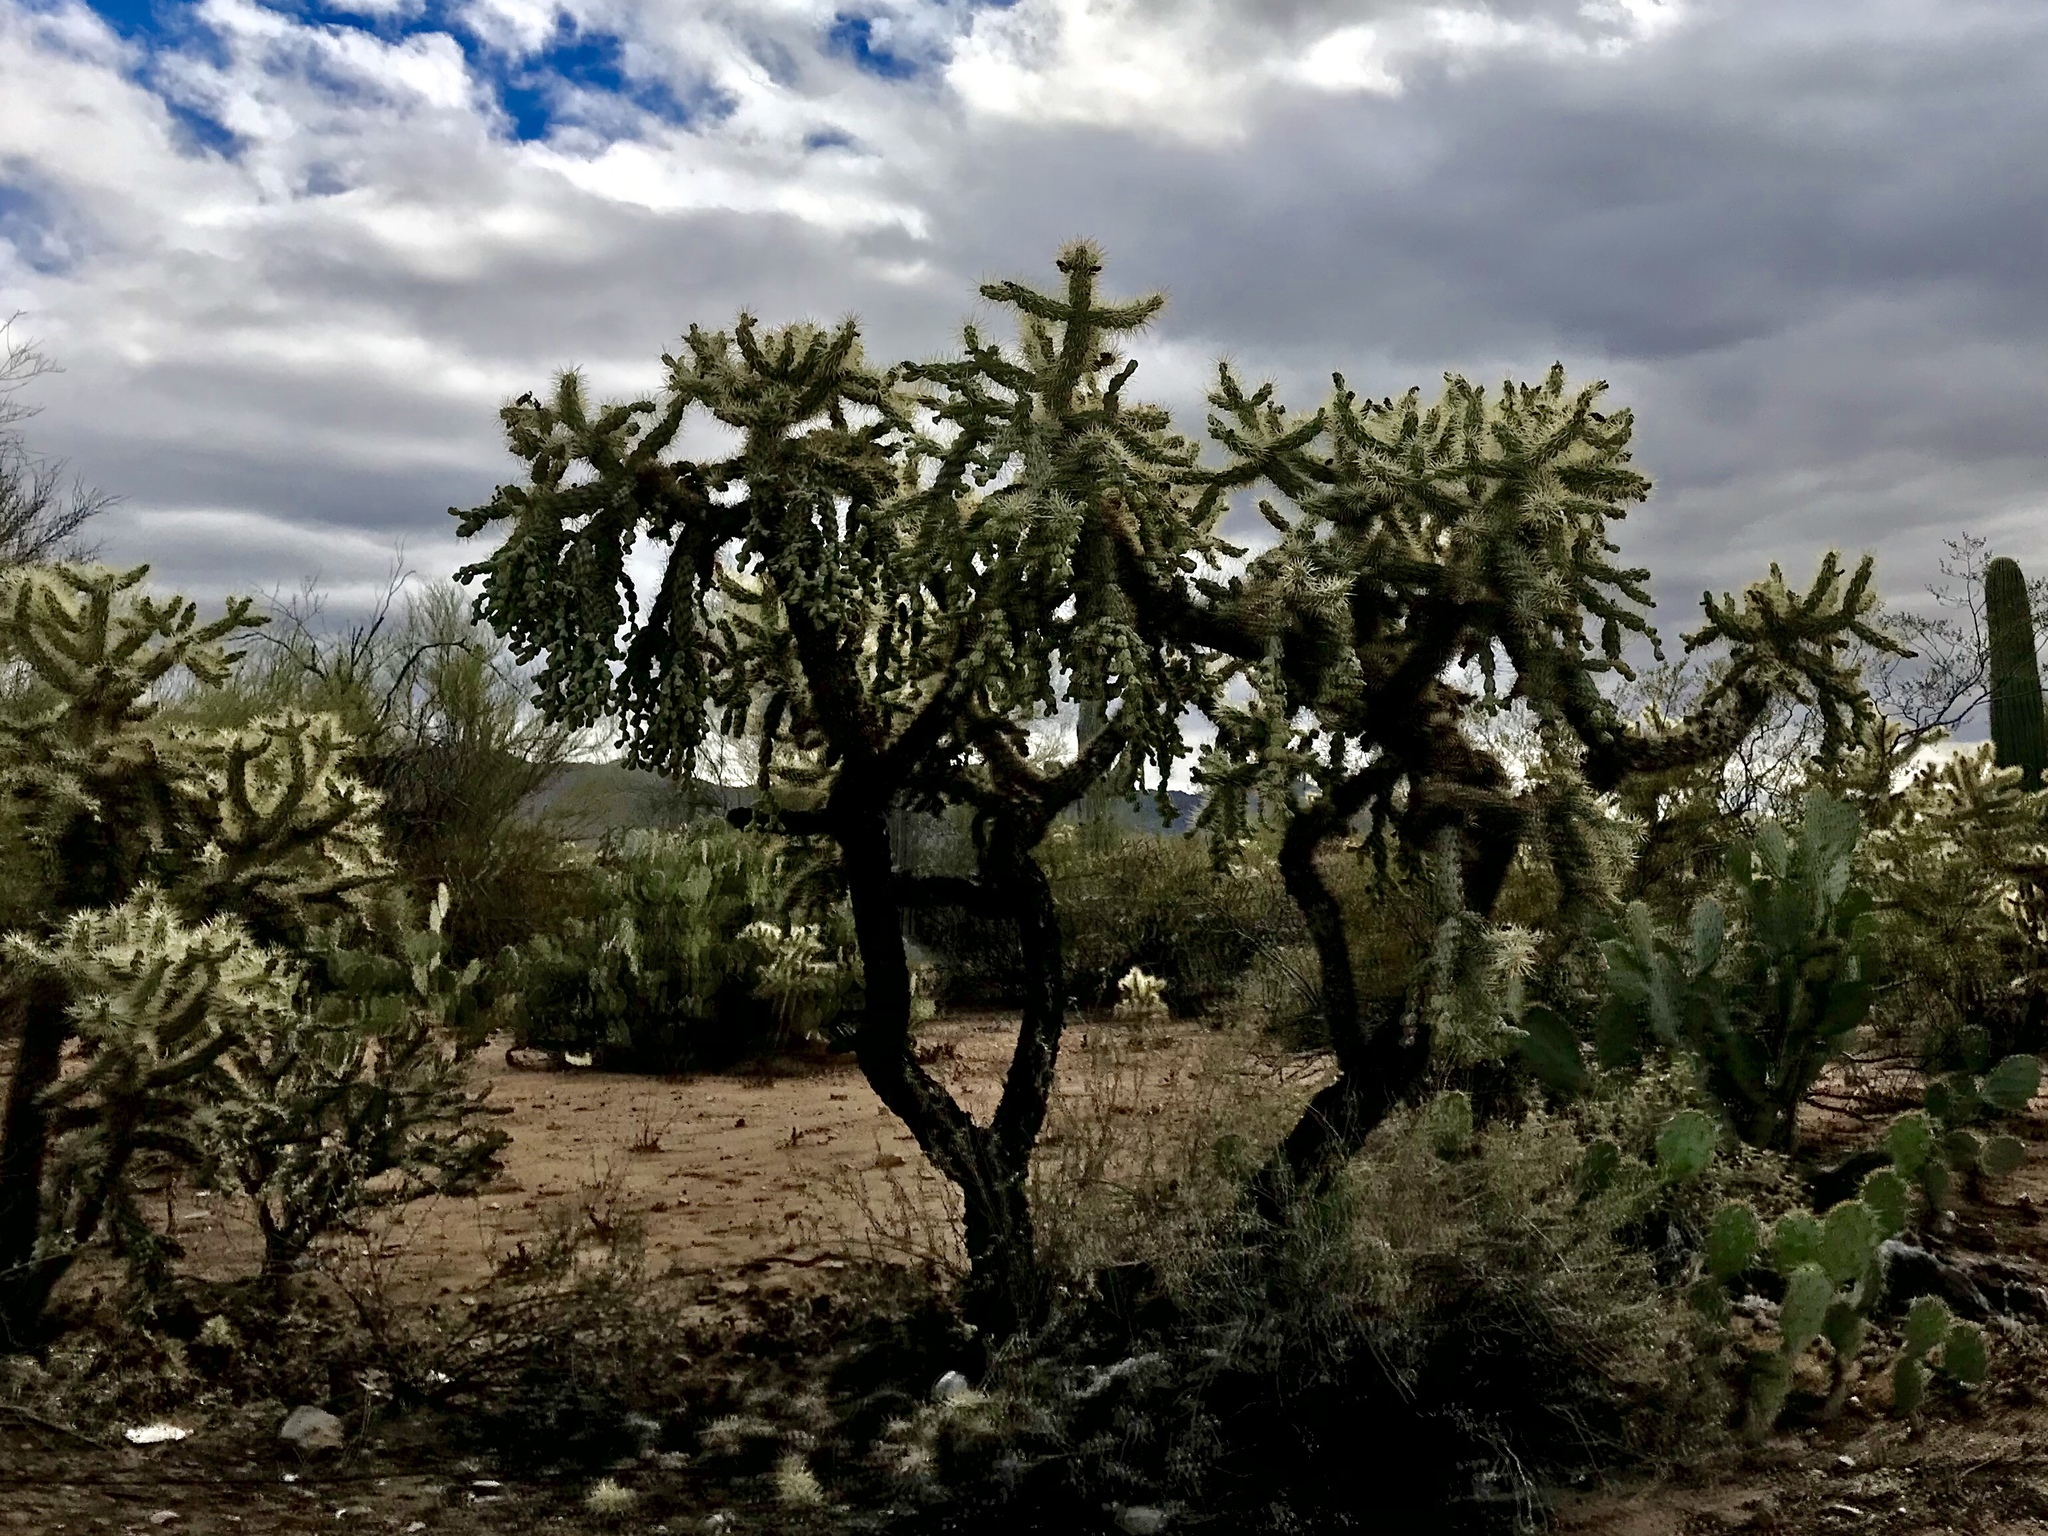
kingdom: Plantae
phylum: Tracheophyta
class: Magnoliopsida
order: Caryophyllales
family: Cactaceae
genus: Cylindropuntia
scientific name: Cylindropuntia fulgida
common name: Jumping cholla
